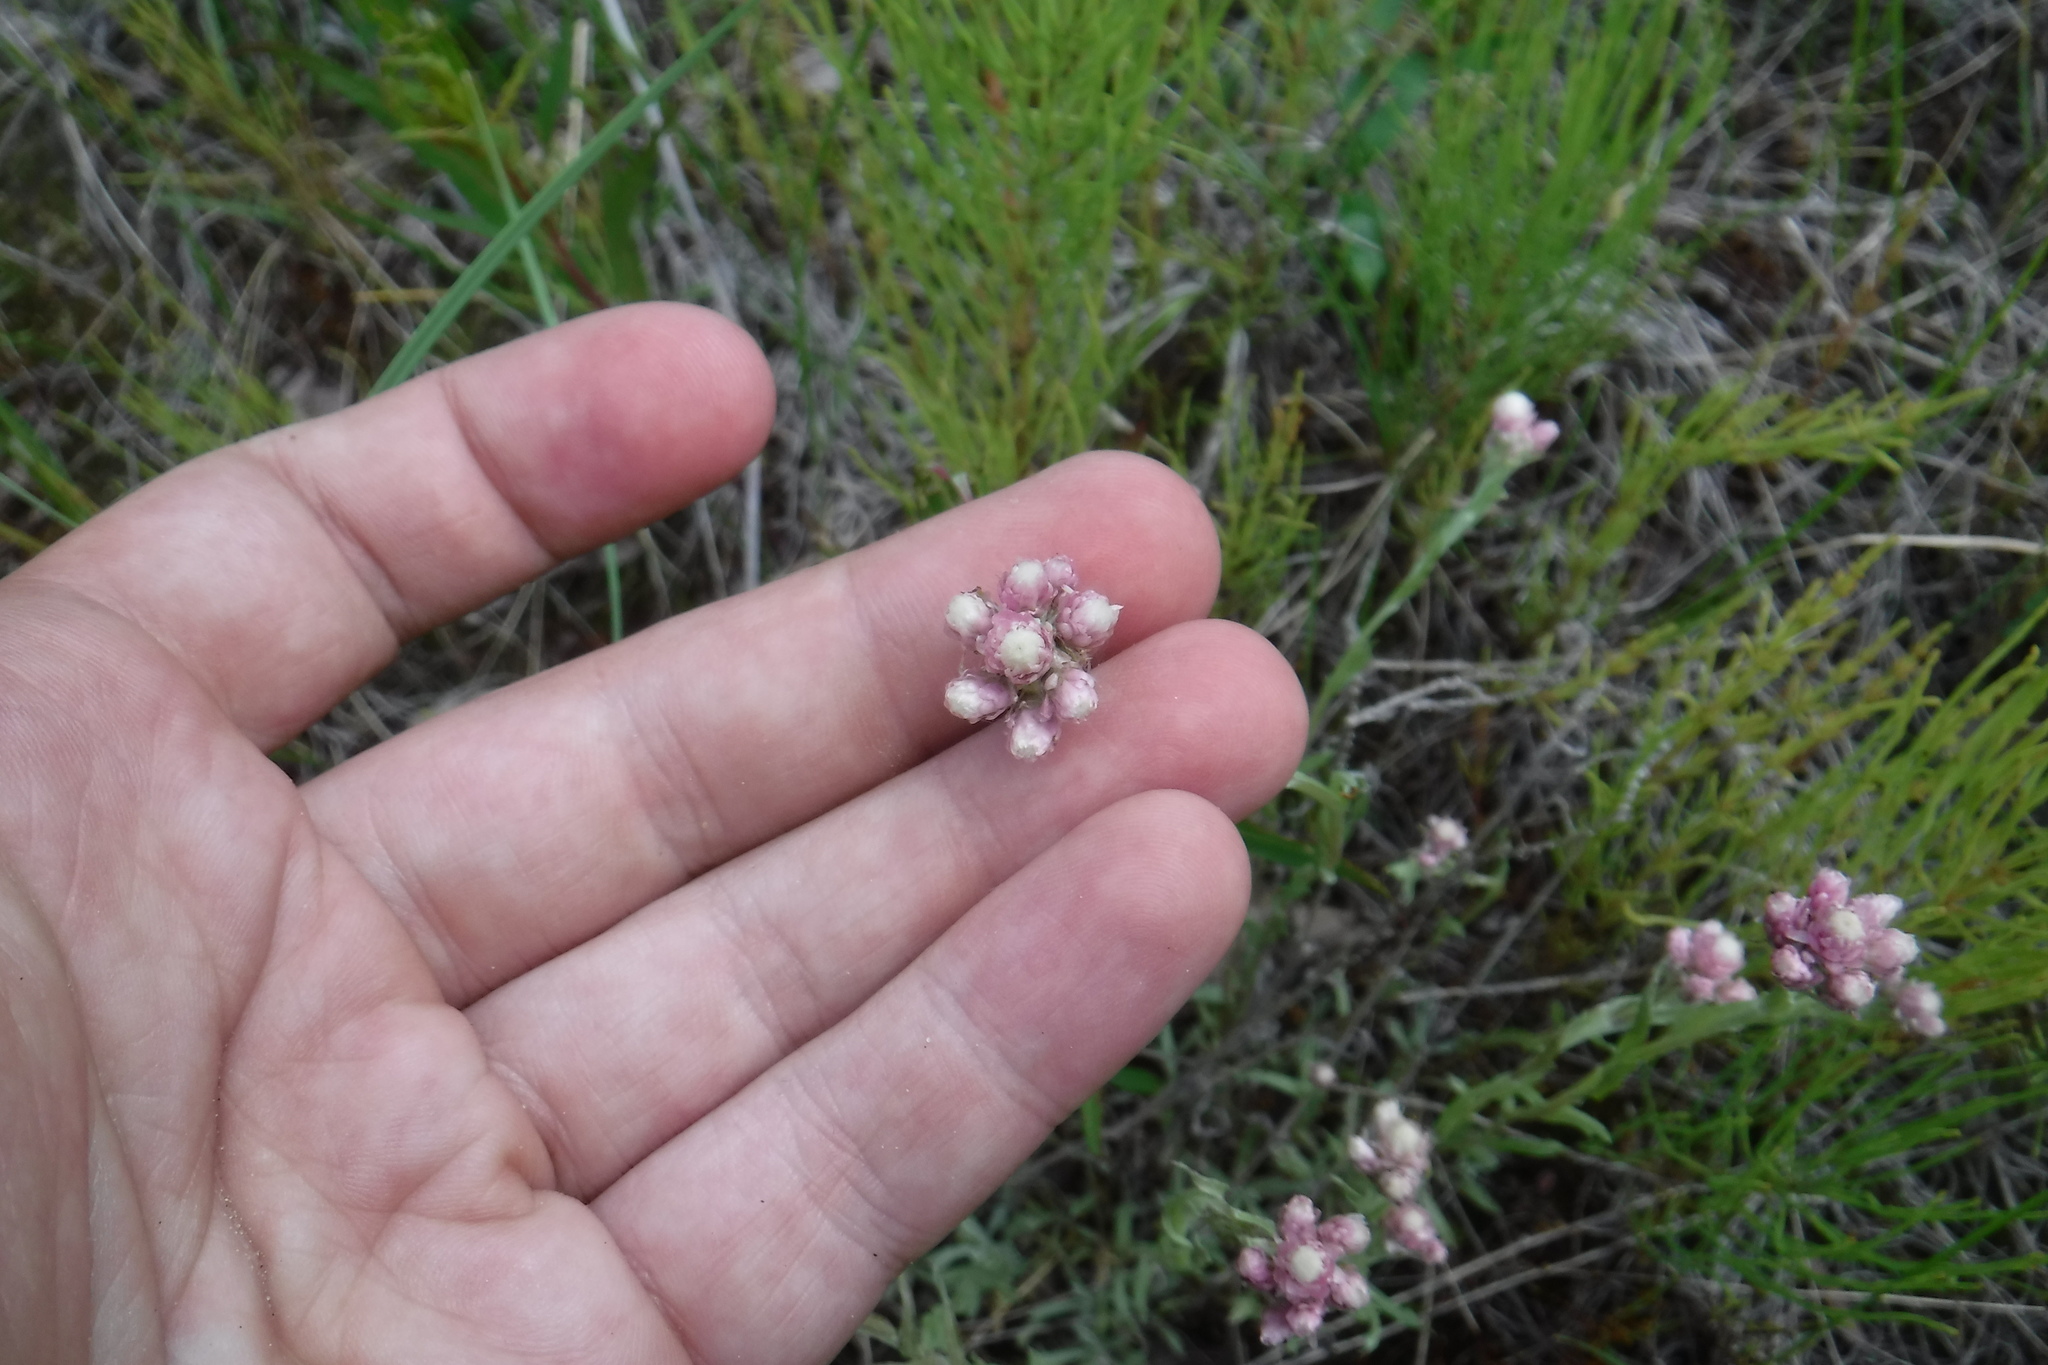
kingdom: Plantae
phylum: Tracheophyta
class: Magnoliopsida
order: Asterales
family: Asteraceae
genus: Antennaria
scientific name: Antennaria rosea
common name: Rosy pussytoes
